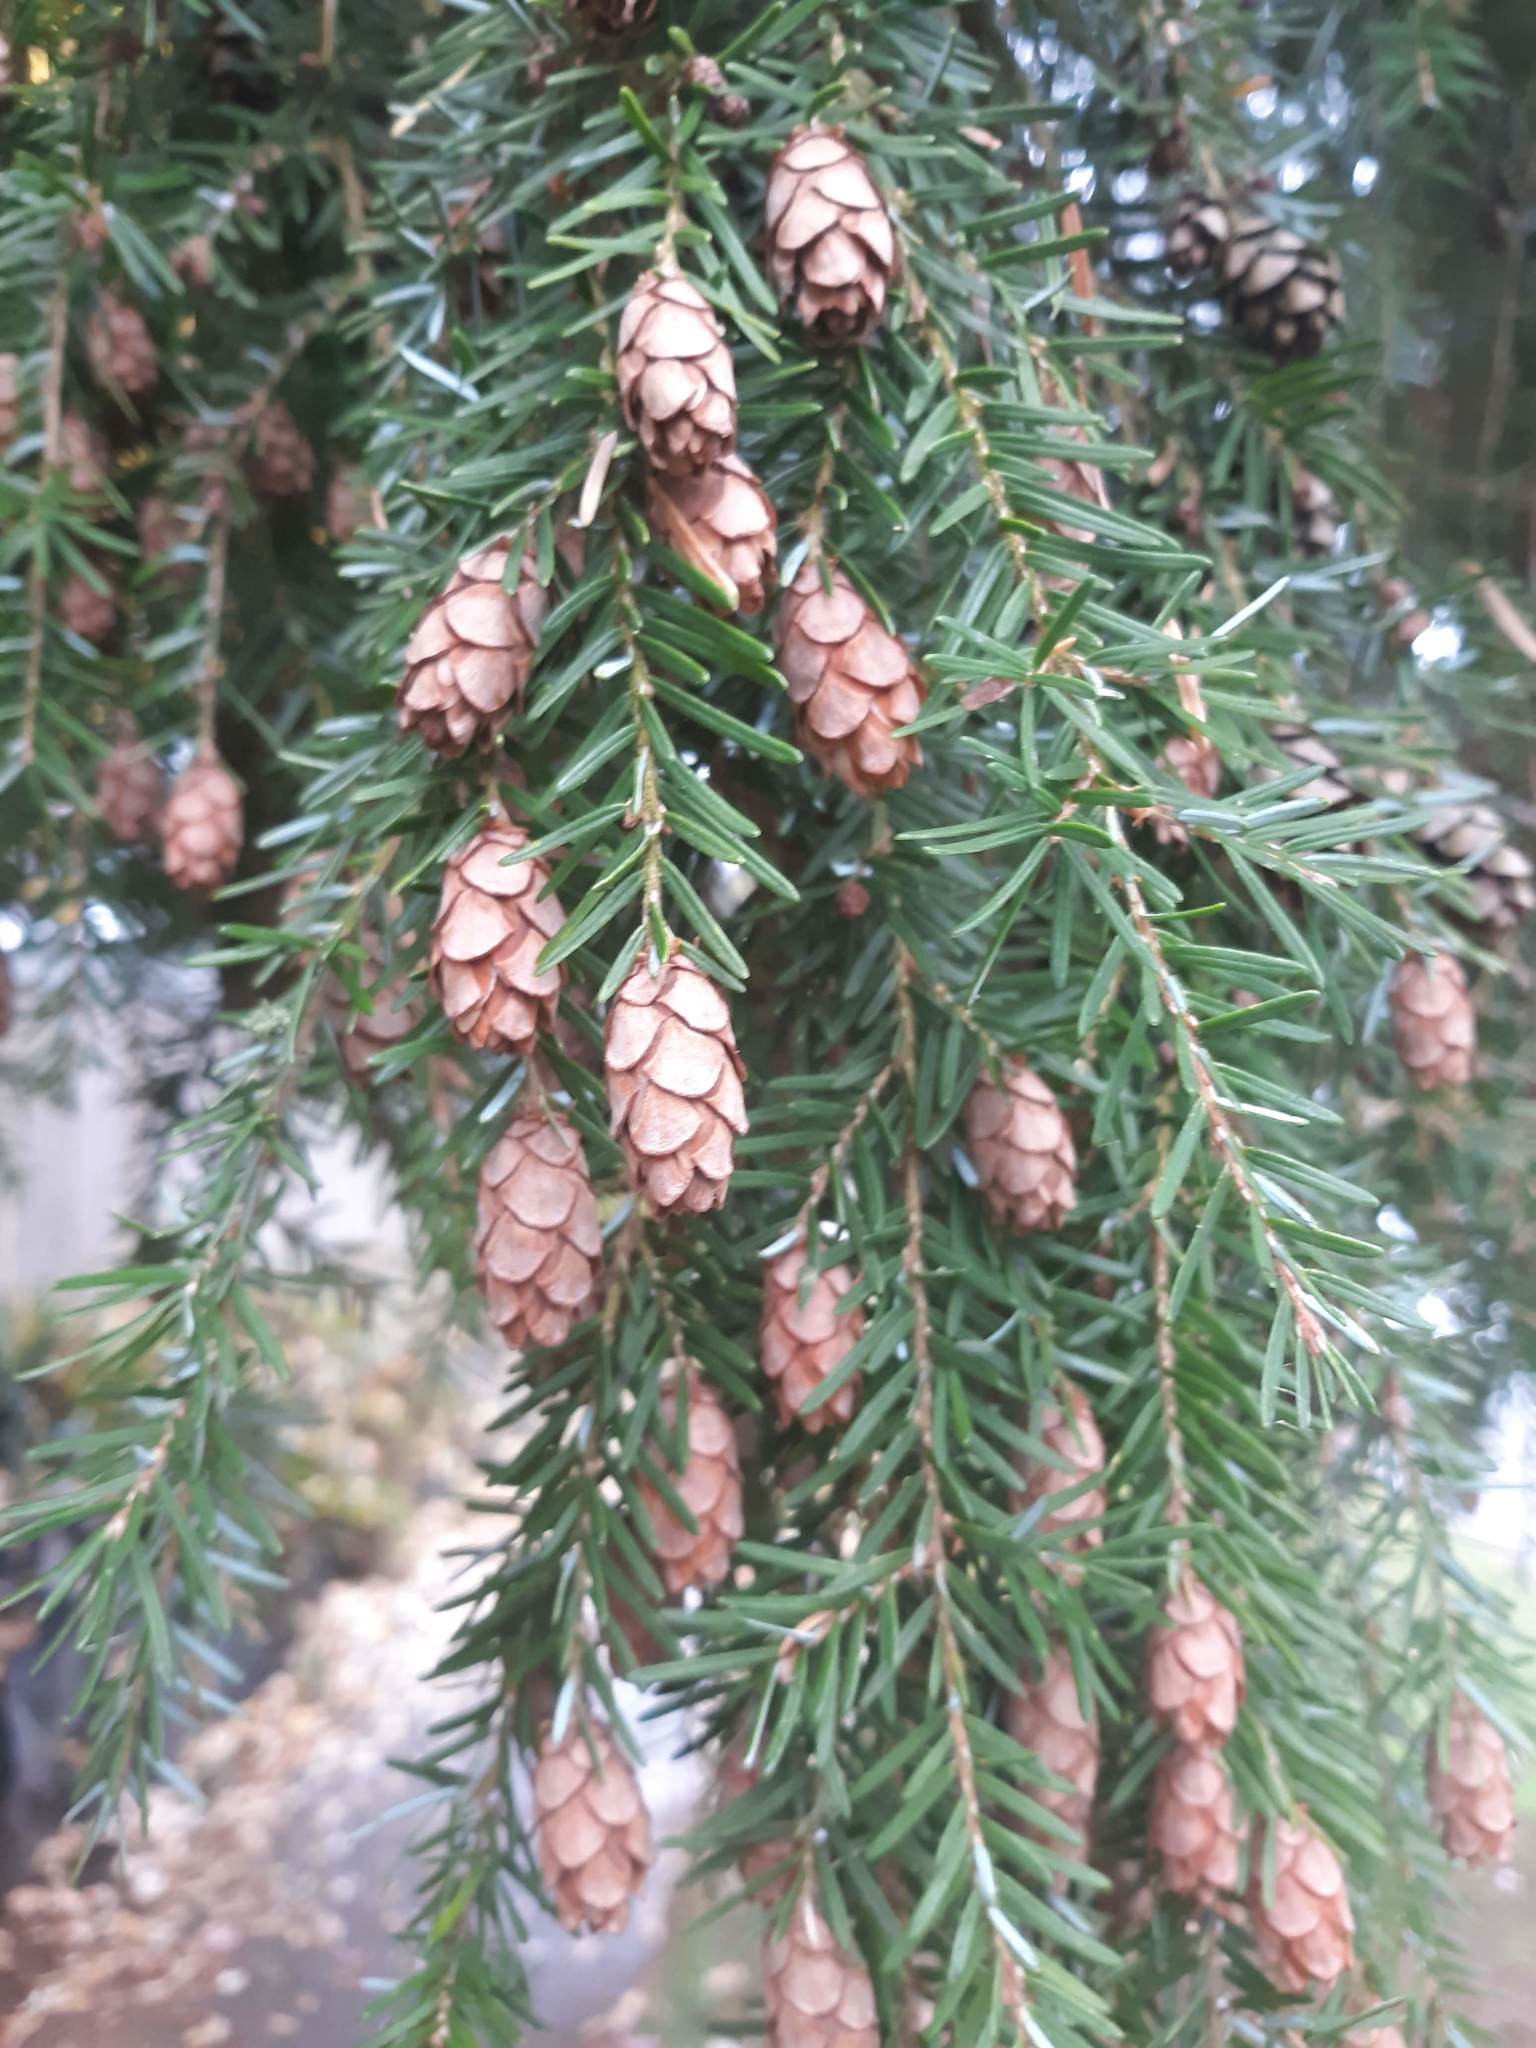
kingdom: Plantae
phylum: Tracheophyta
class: Pinopsida
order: Pinales
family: Pinaceae
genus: Tsuga
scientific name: Tsuga heterophylla
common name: Western hemlock
